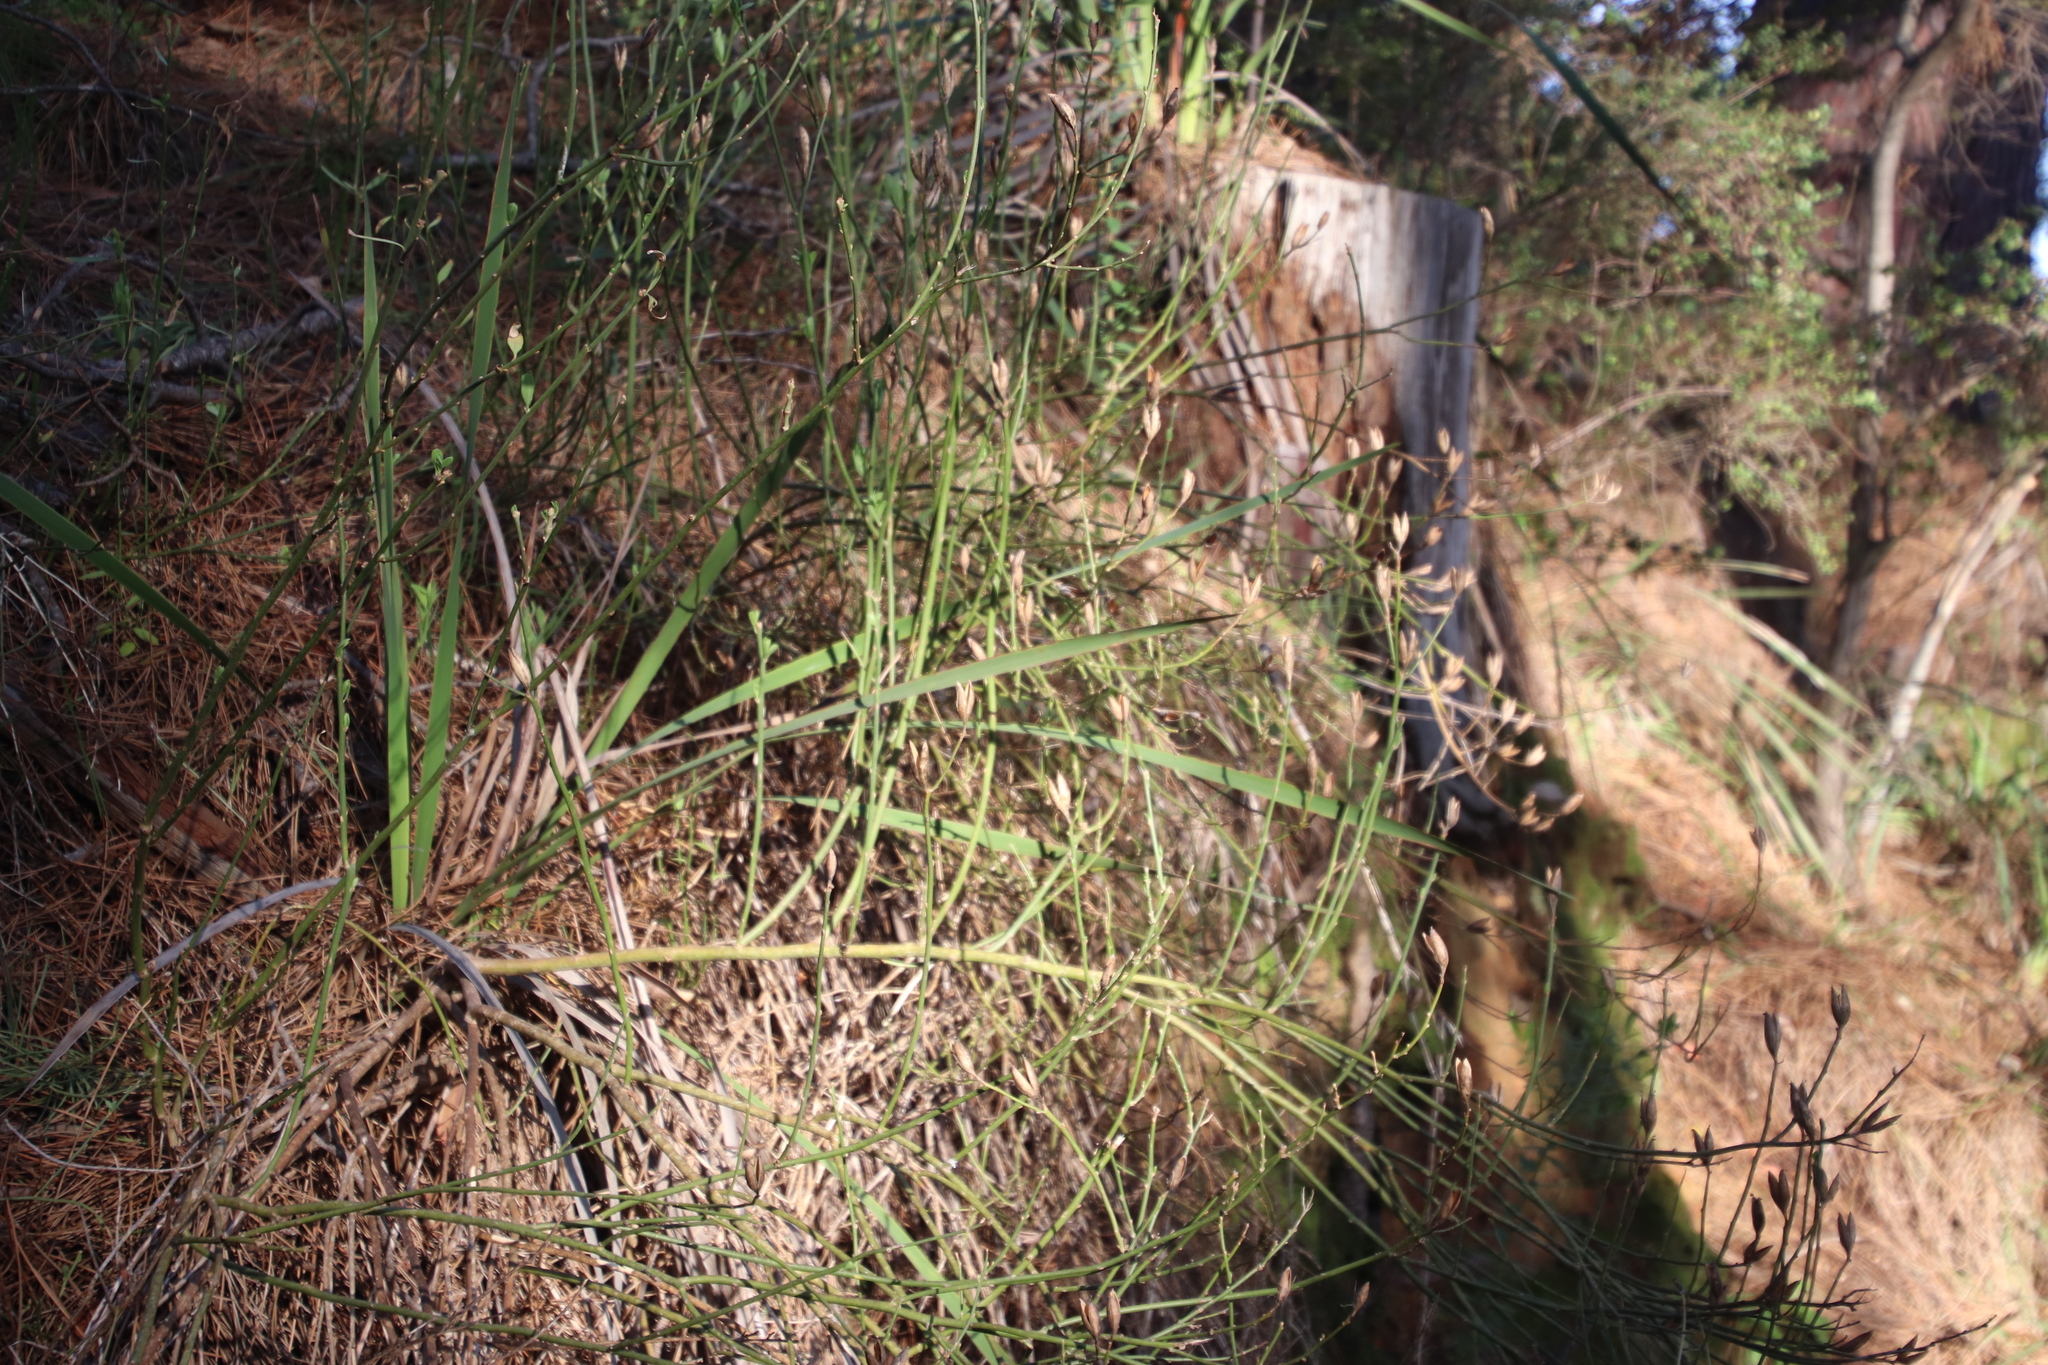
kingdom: Plantae
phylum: Tracheophyta
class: Magnoliopsida
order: Solanales
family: Montiniaceae
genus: Montinia
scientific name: Montinia caryophyllacea
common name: Wild clove-bush
